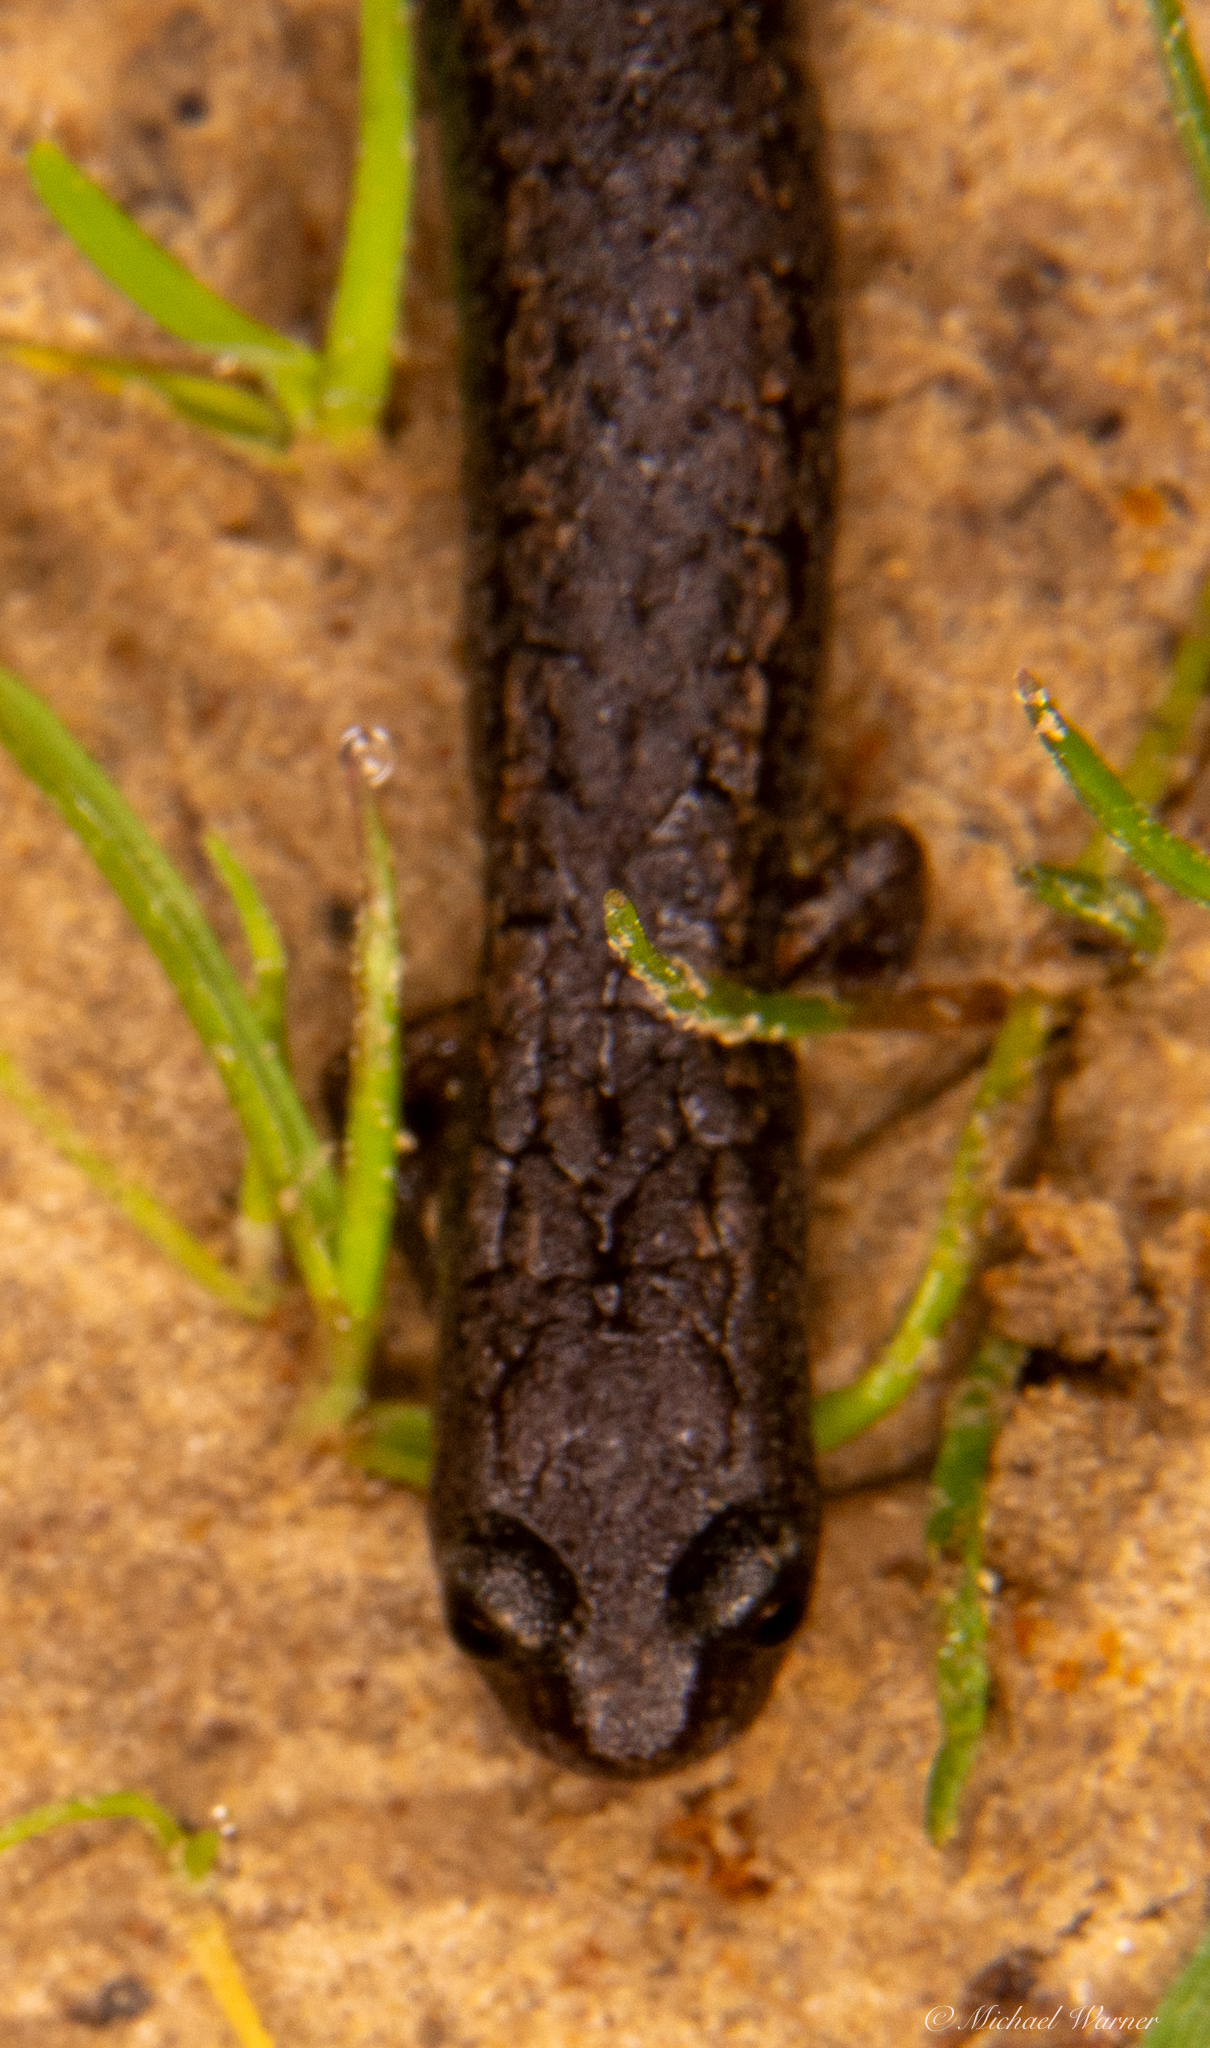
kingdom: Animalia
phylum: Chordata
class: Amphibia
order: Caudata
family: Plethodontidae
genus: Batrachoseps
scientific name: Batrachoseps attenuatus
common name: California slender salamander
